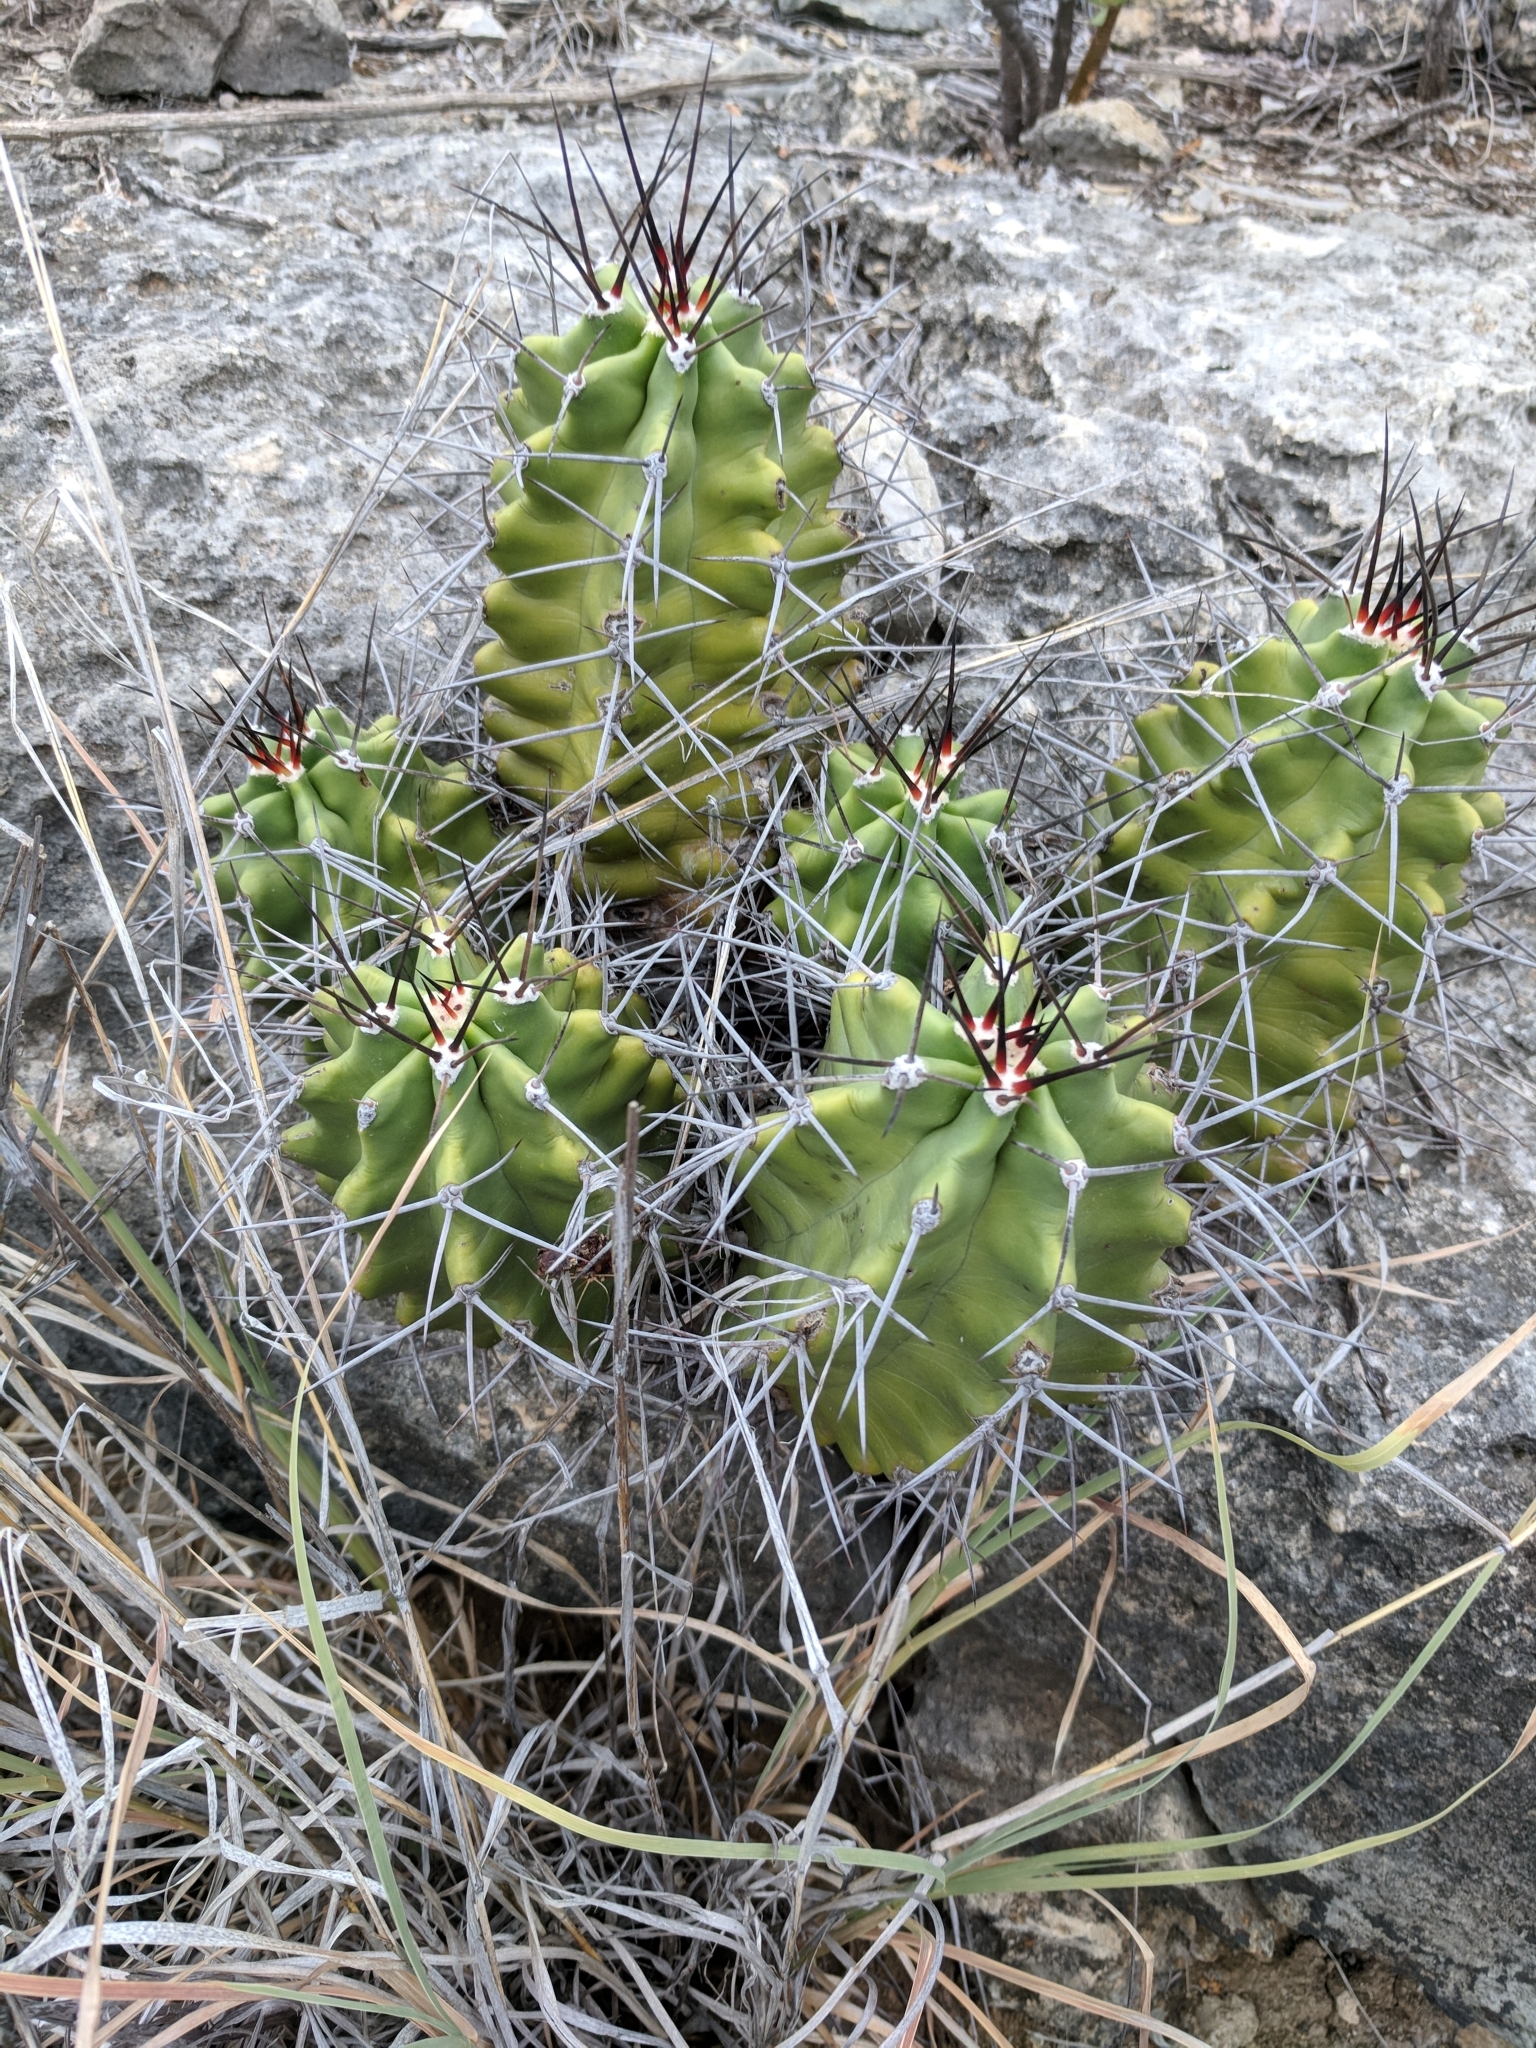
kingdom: Plantae
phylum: Tracheophyta
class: Magnoliopsida
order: Caryophyllales
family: Cactaceae
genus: Echinocereus
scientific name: Echinocereus coccineus
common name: Scarlet hedgehog cactus
